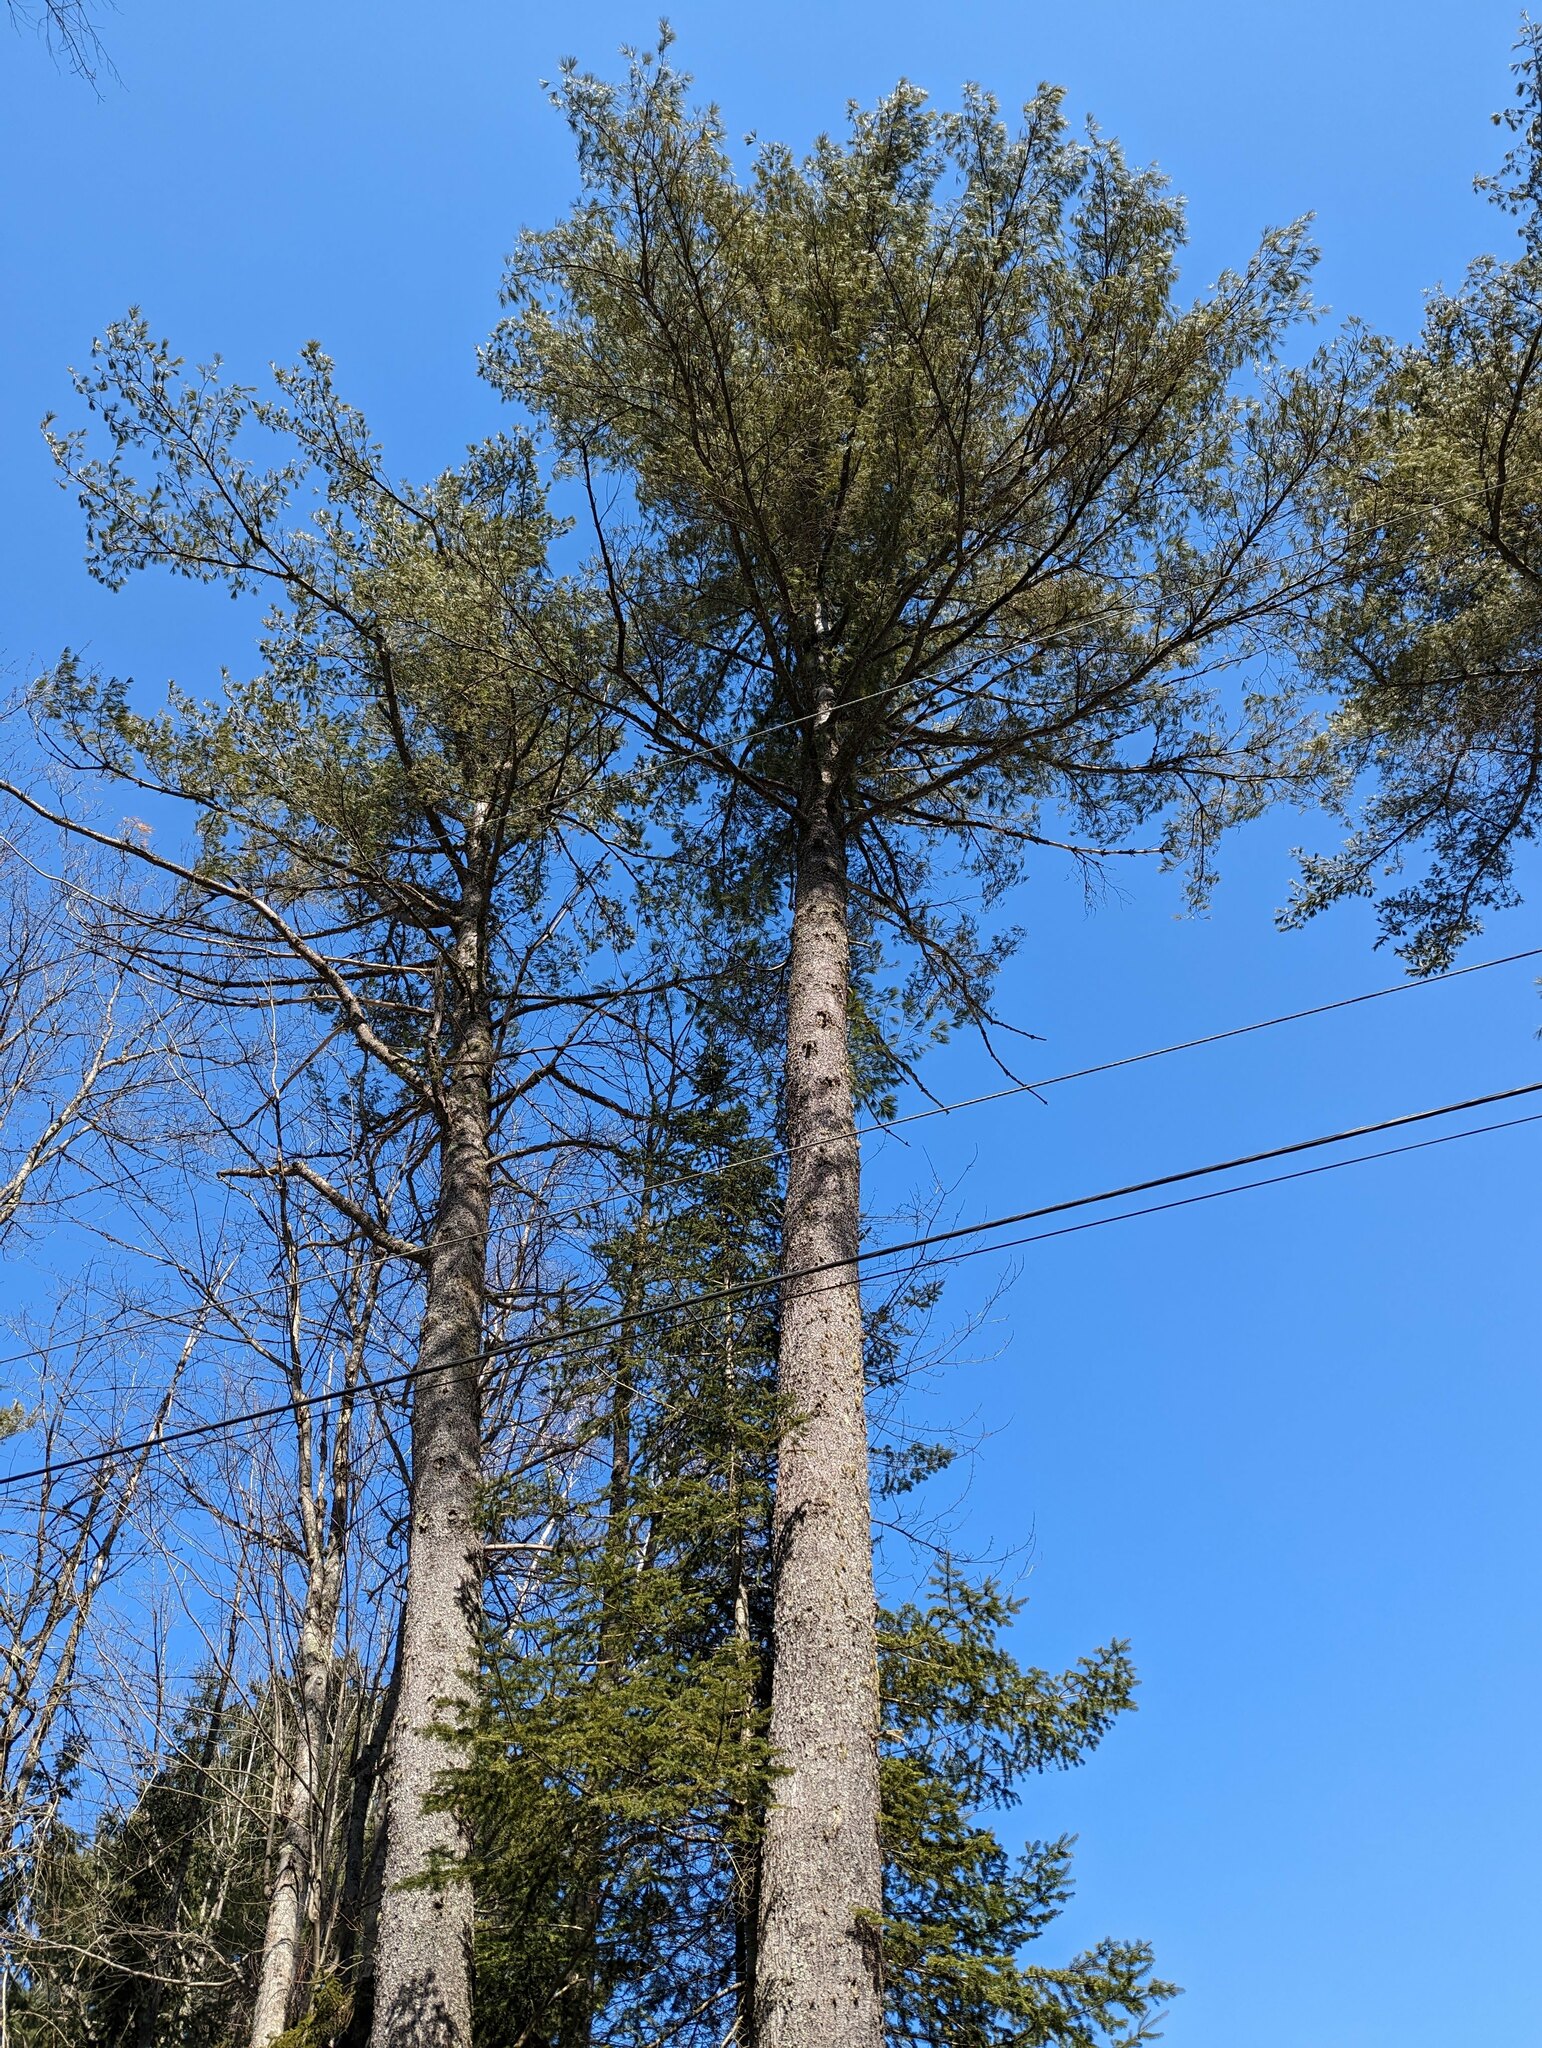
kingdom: Plantae
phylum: Tracheophyta
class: Pinopsida
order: Pinales
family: Pinaceae
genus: Pinus
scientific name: Pinus strobus
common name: Weymouth pine
